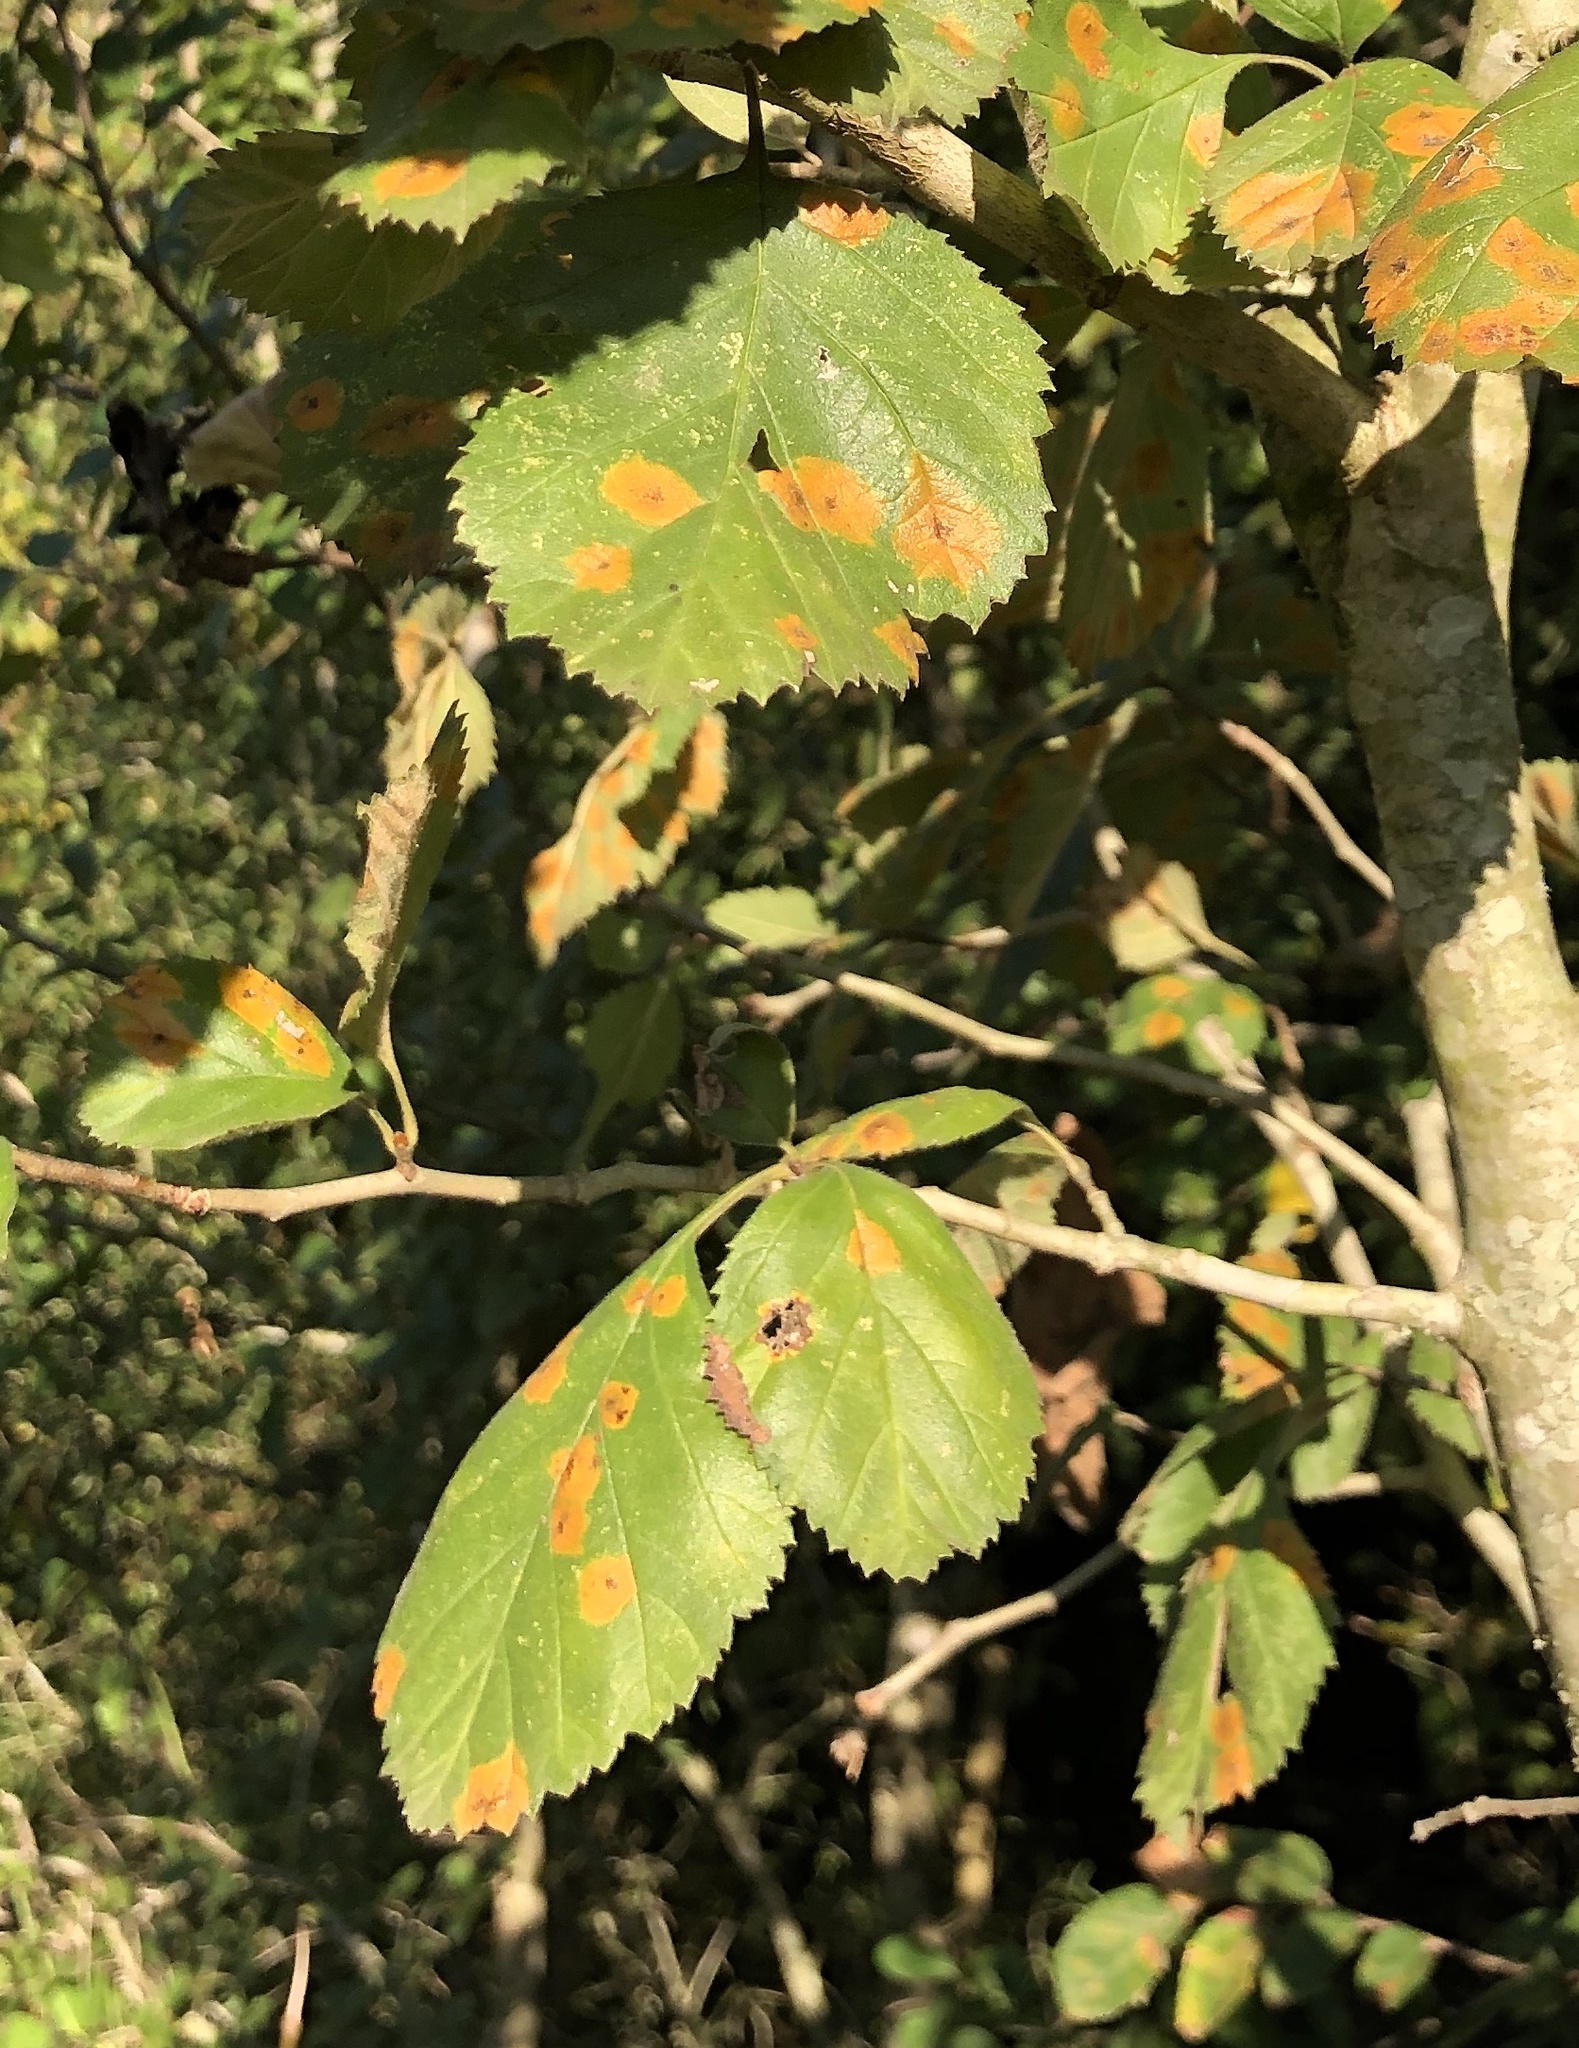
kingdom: Plantae
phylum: Tracheophyta
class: Magnoliopsida
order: Rosales
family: Rosaceae
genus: Crataegus
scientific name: Crataegus viridis
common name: Southernthorn
